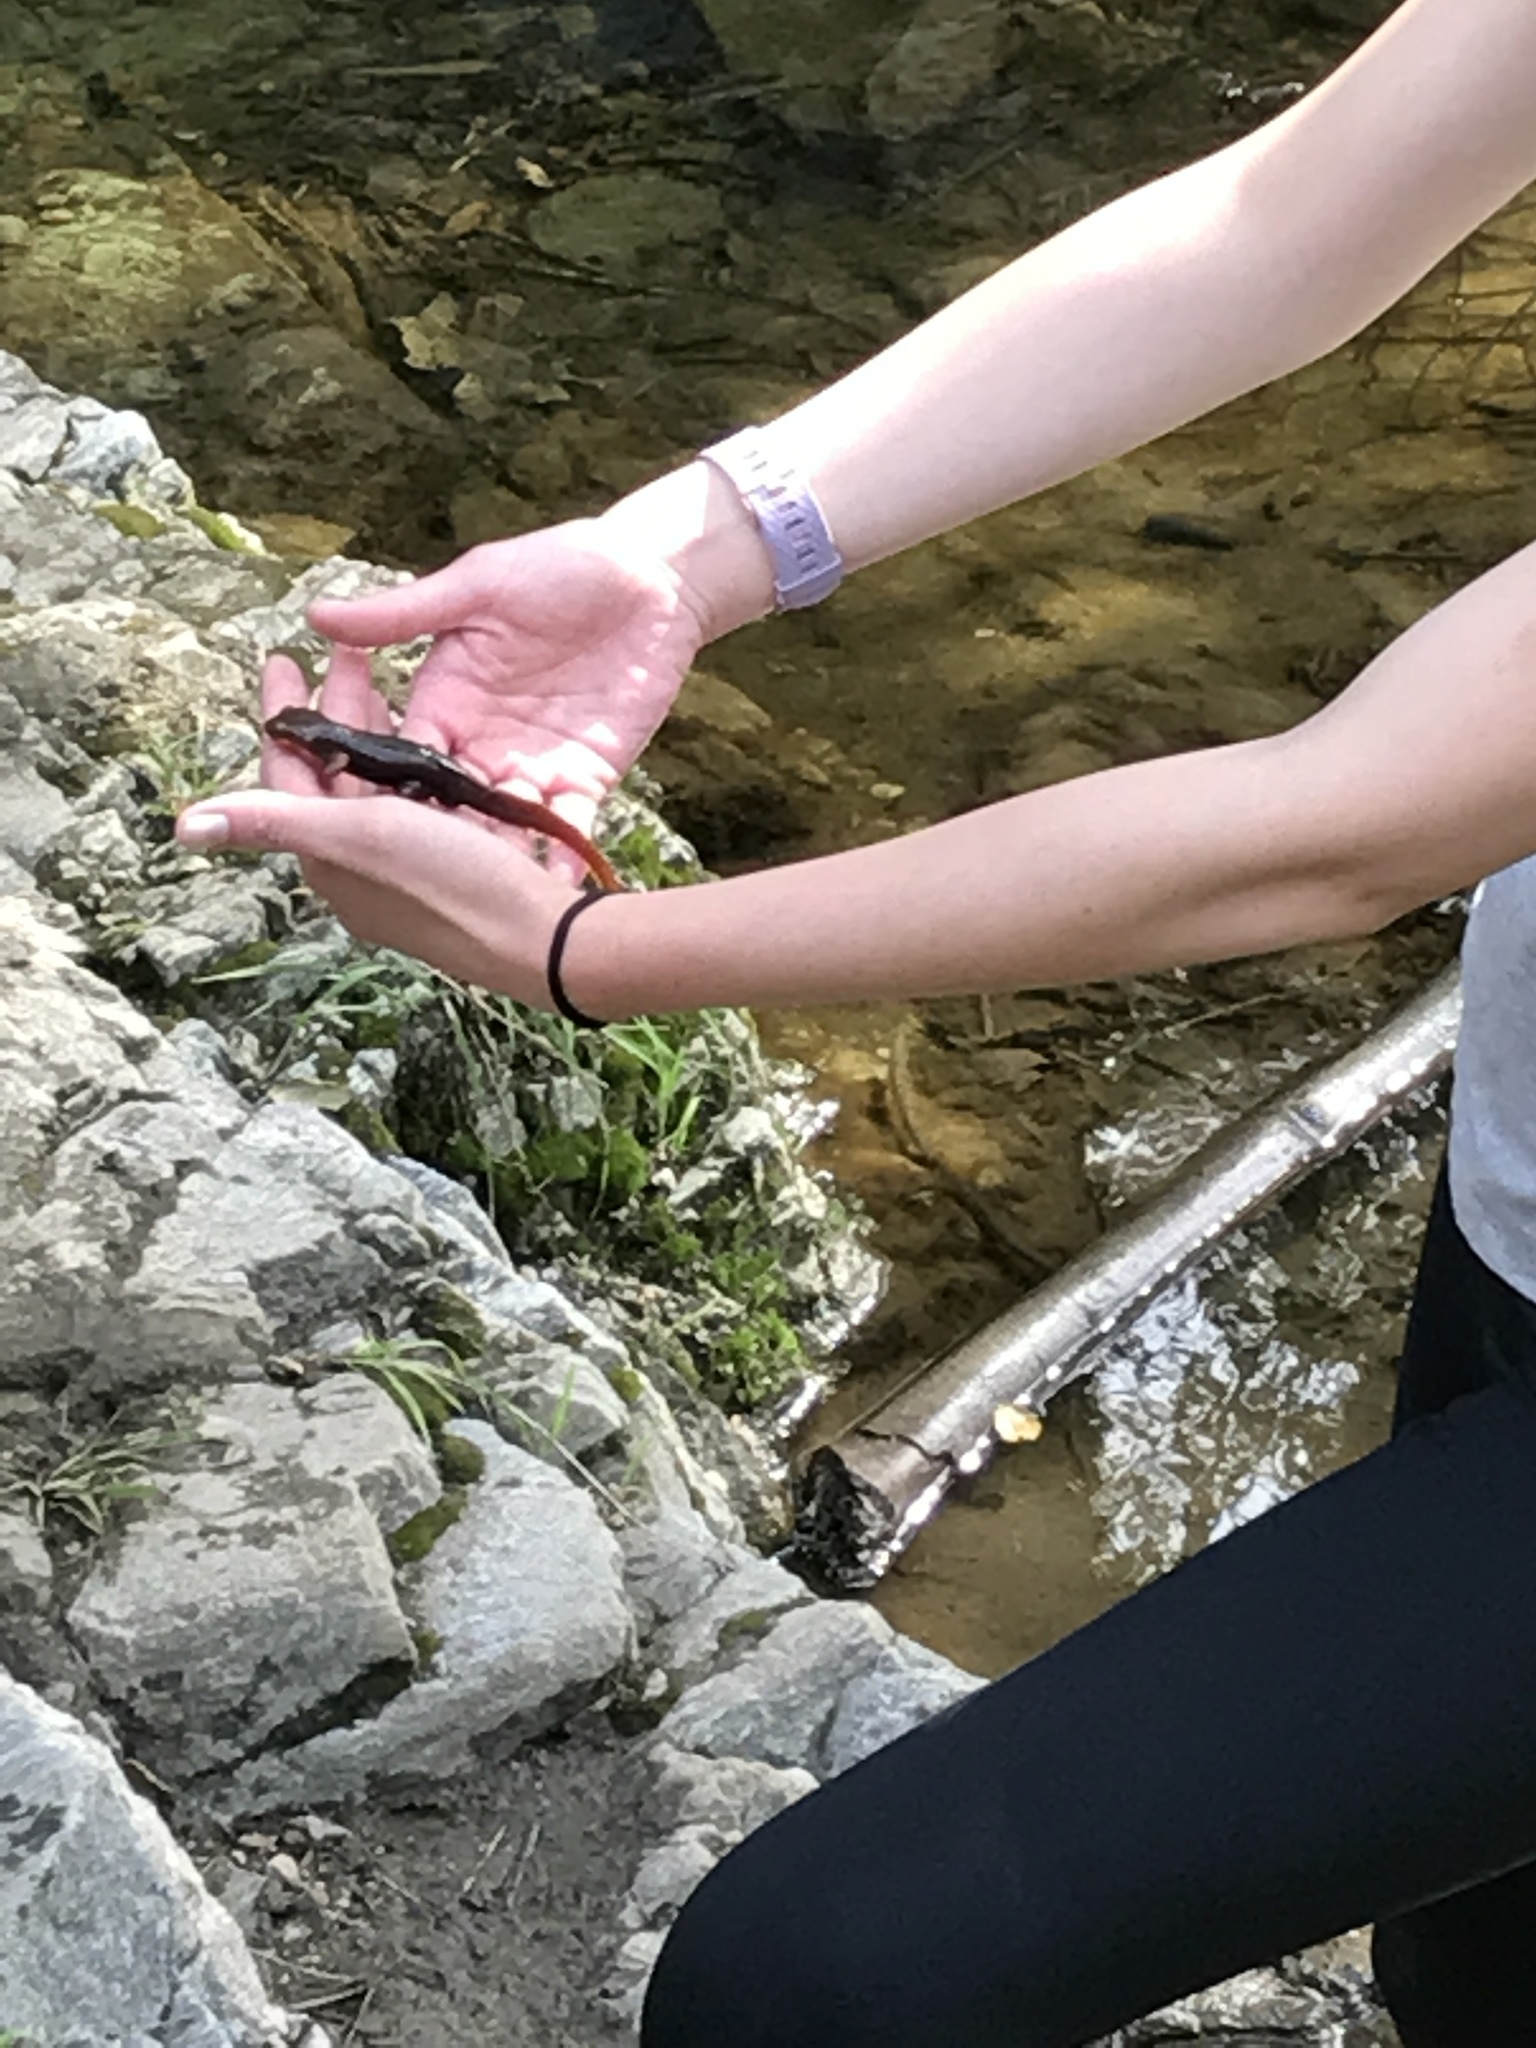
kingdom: Animalia
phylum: Chordata
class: Amphibia
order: Caudata
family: Salamandridae
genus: Taricha
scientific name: Taricha torosa
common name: California newt
